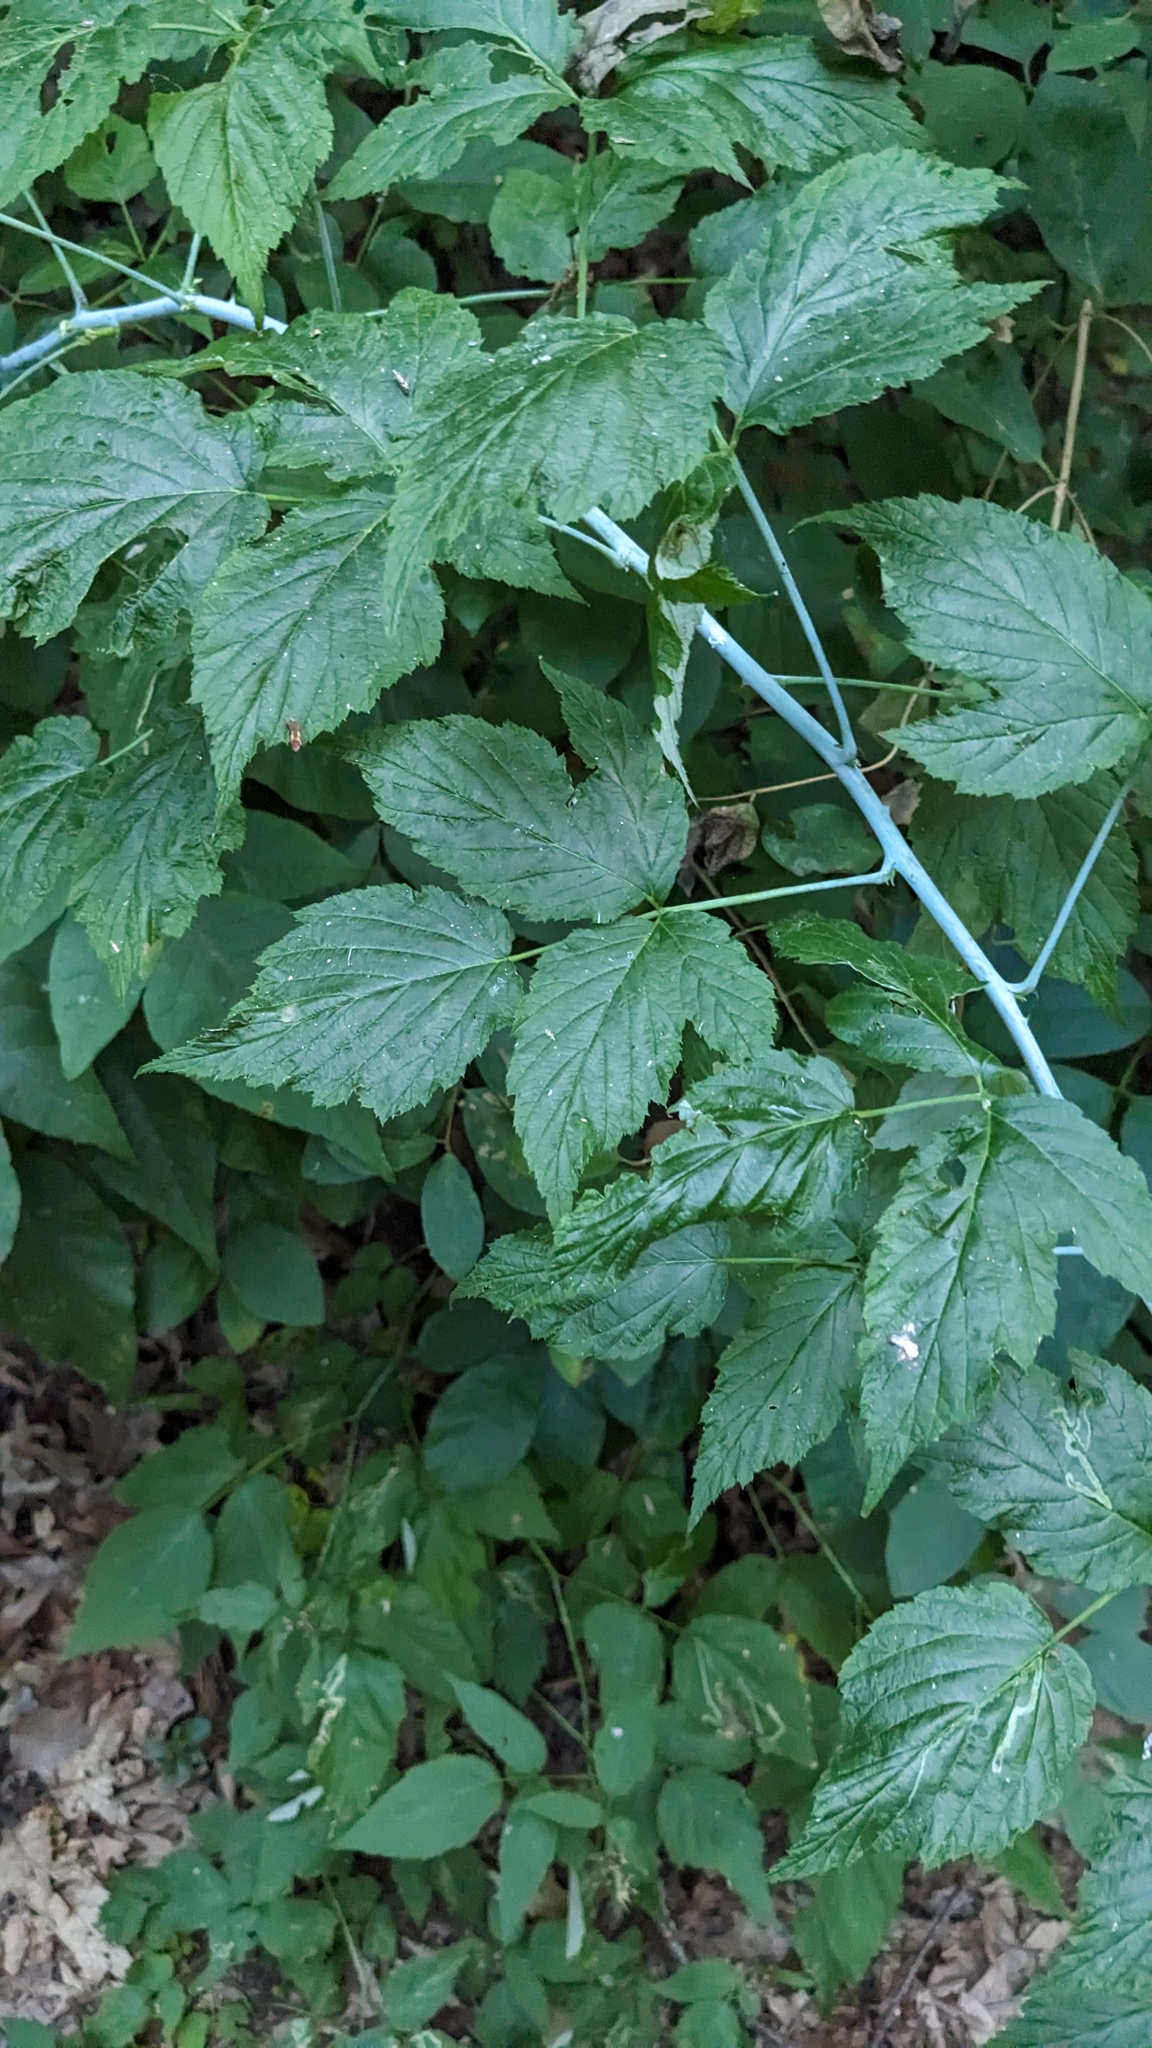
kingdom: Plantae
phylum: Tracheophyta
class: Magnoliopsida
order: Rosales
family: Rosaceae
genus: Rubus
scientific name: Rubus occidentalis
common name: Black raspberry
